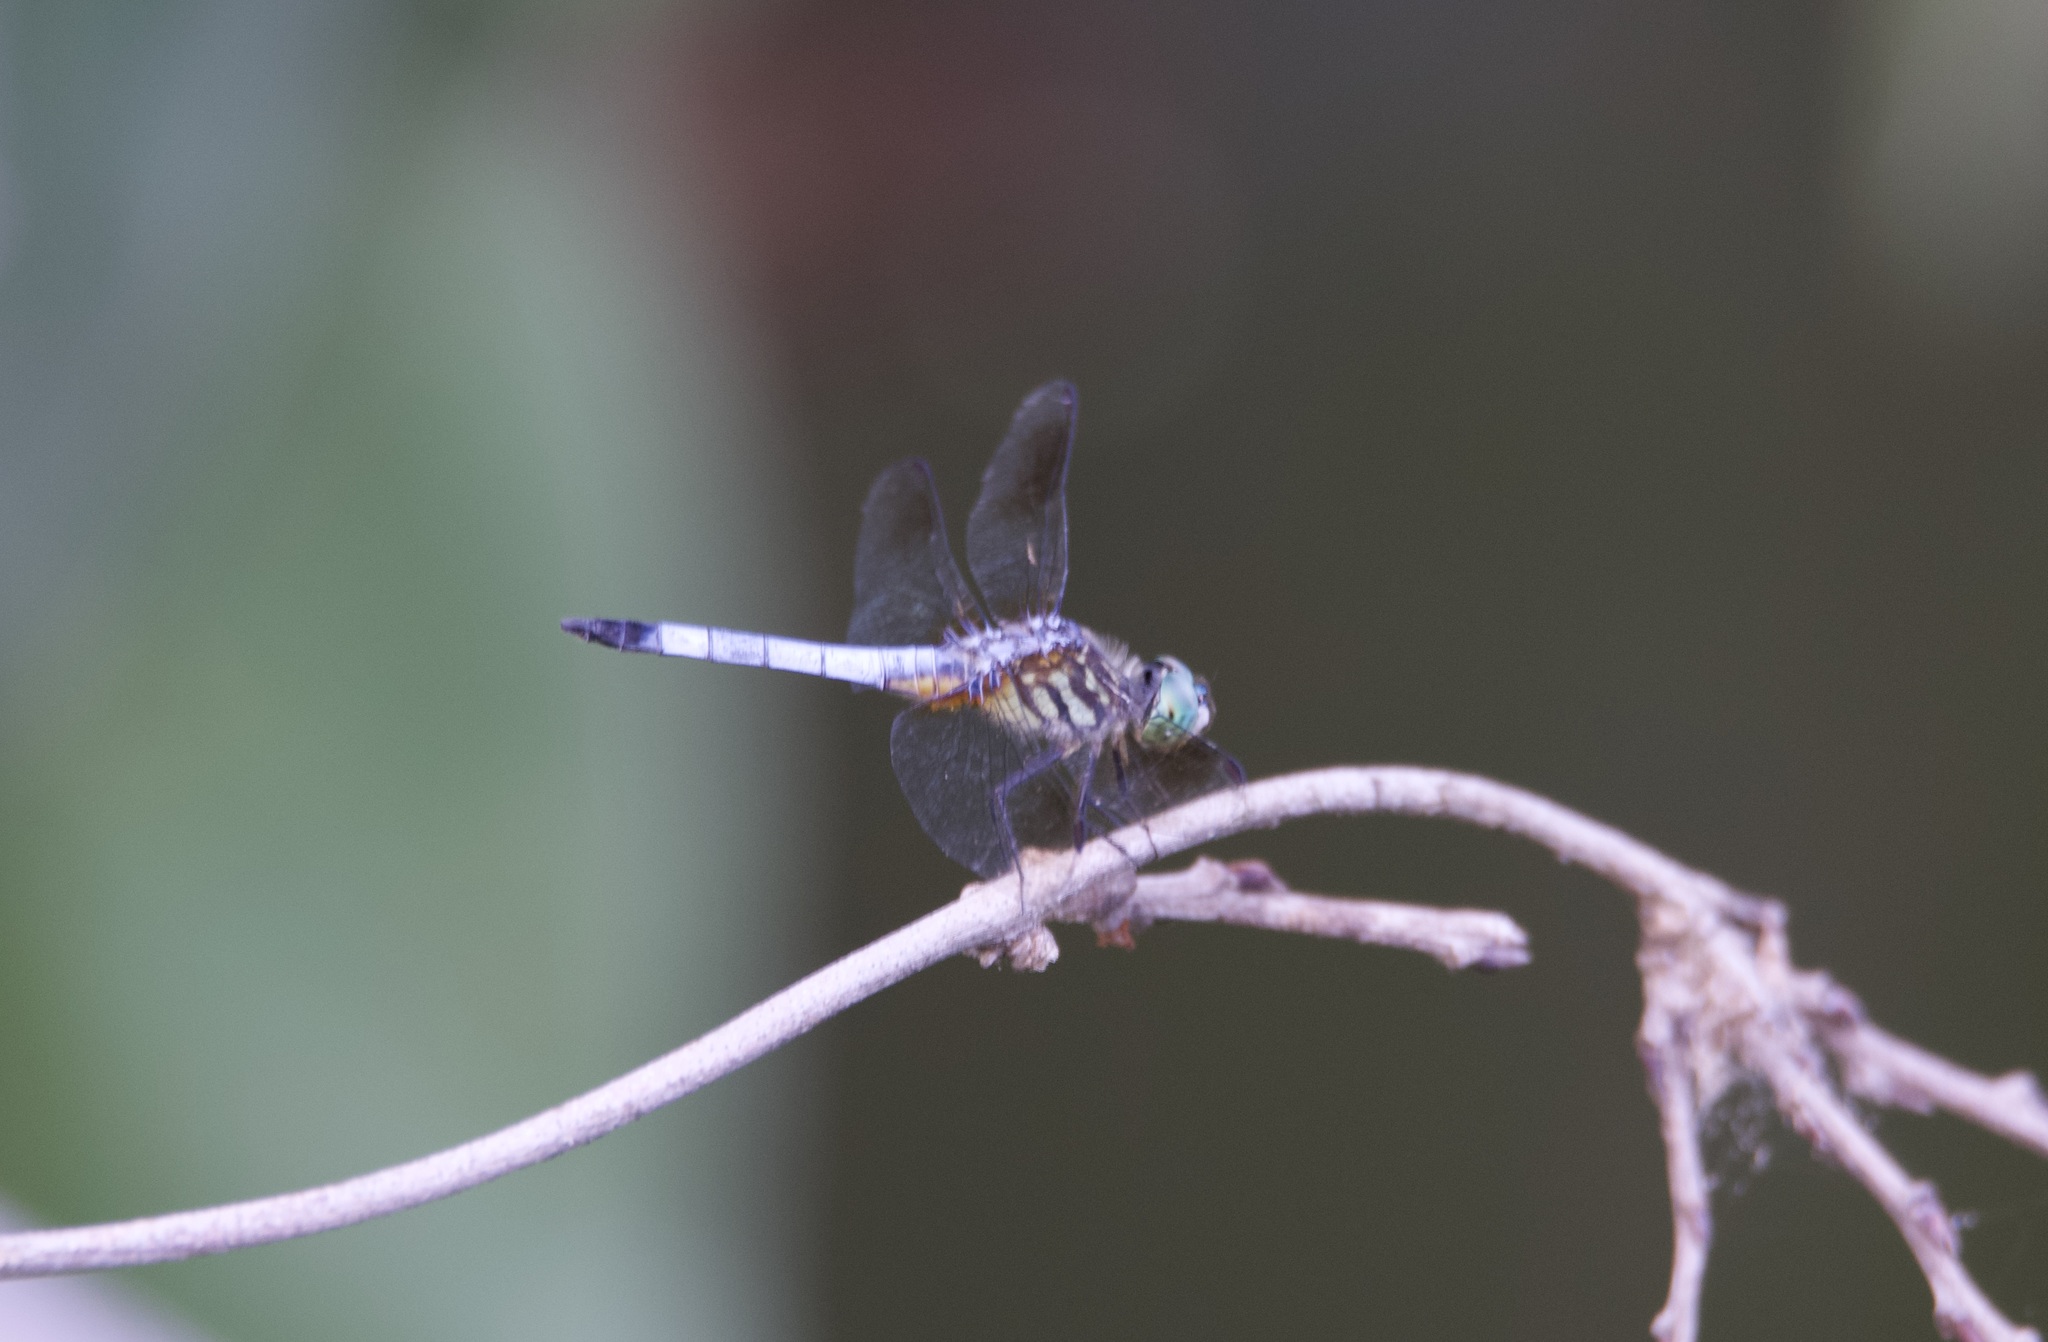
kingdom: Animalia
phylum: Arthropoda
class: Insecta
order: Odonata
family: Libellulidae
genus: Pachydiplax
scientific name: Pachydiplax longipennis
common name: Blue dasher
